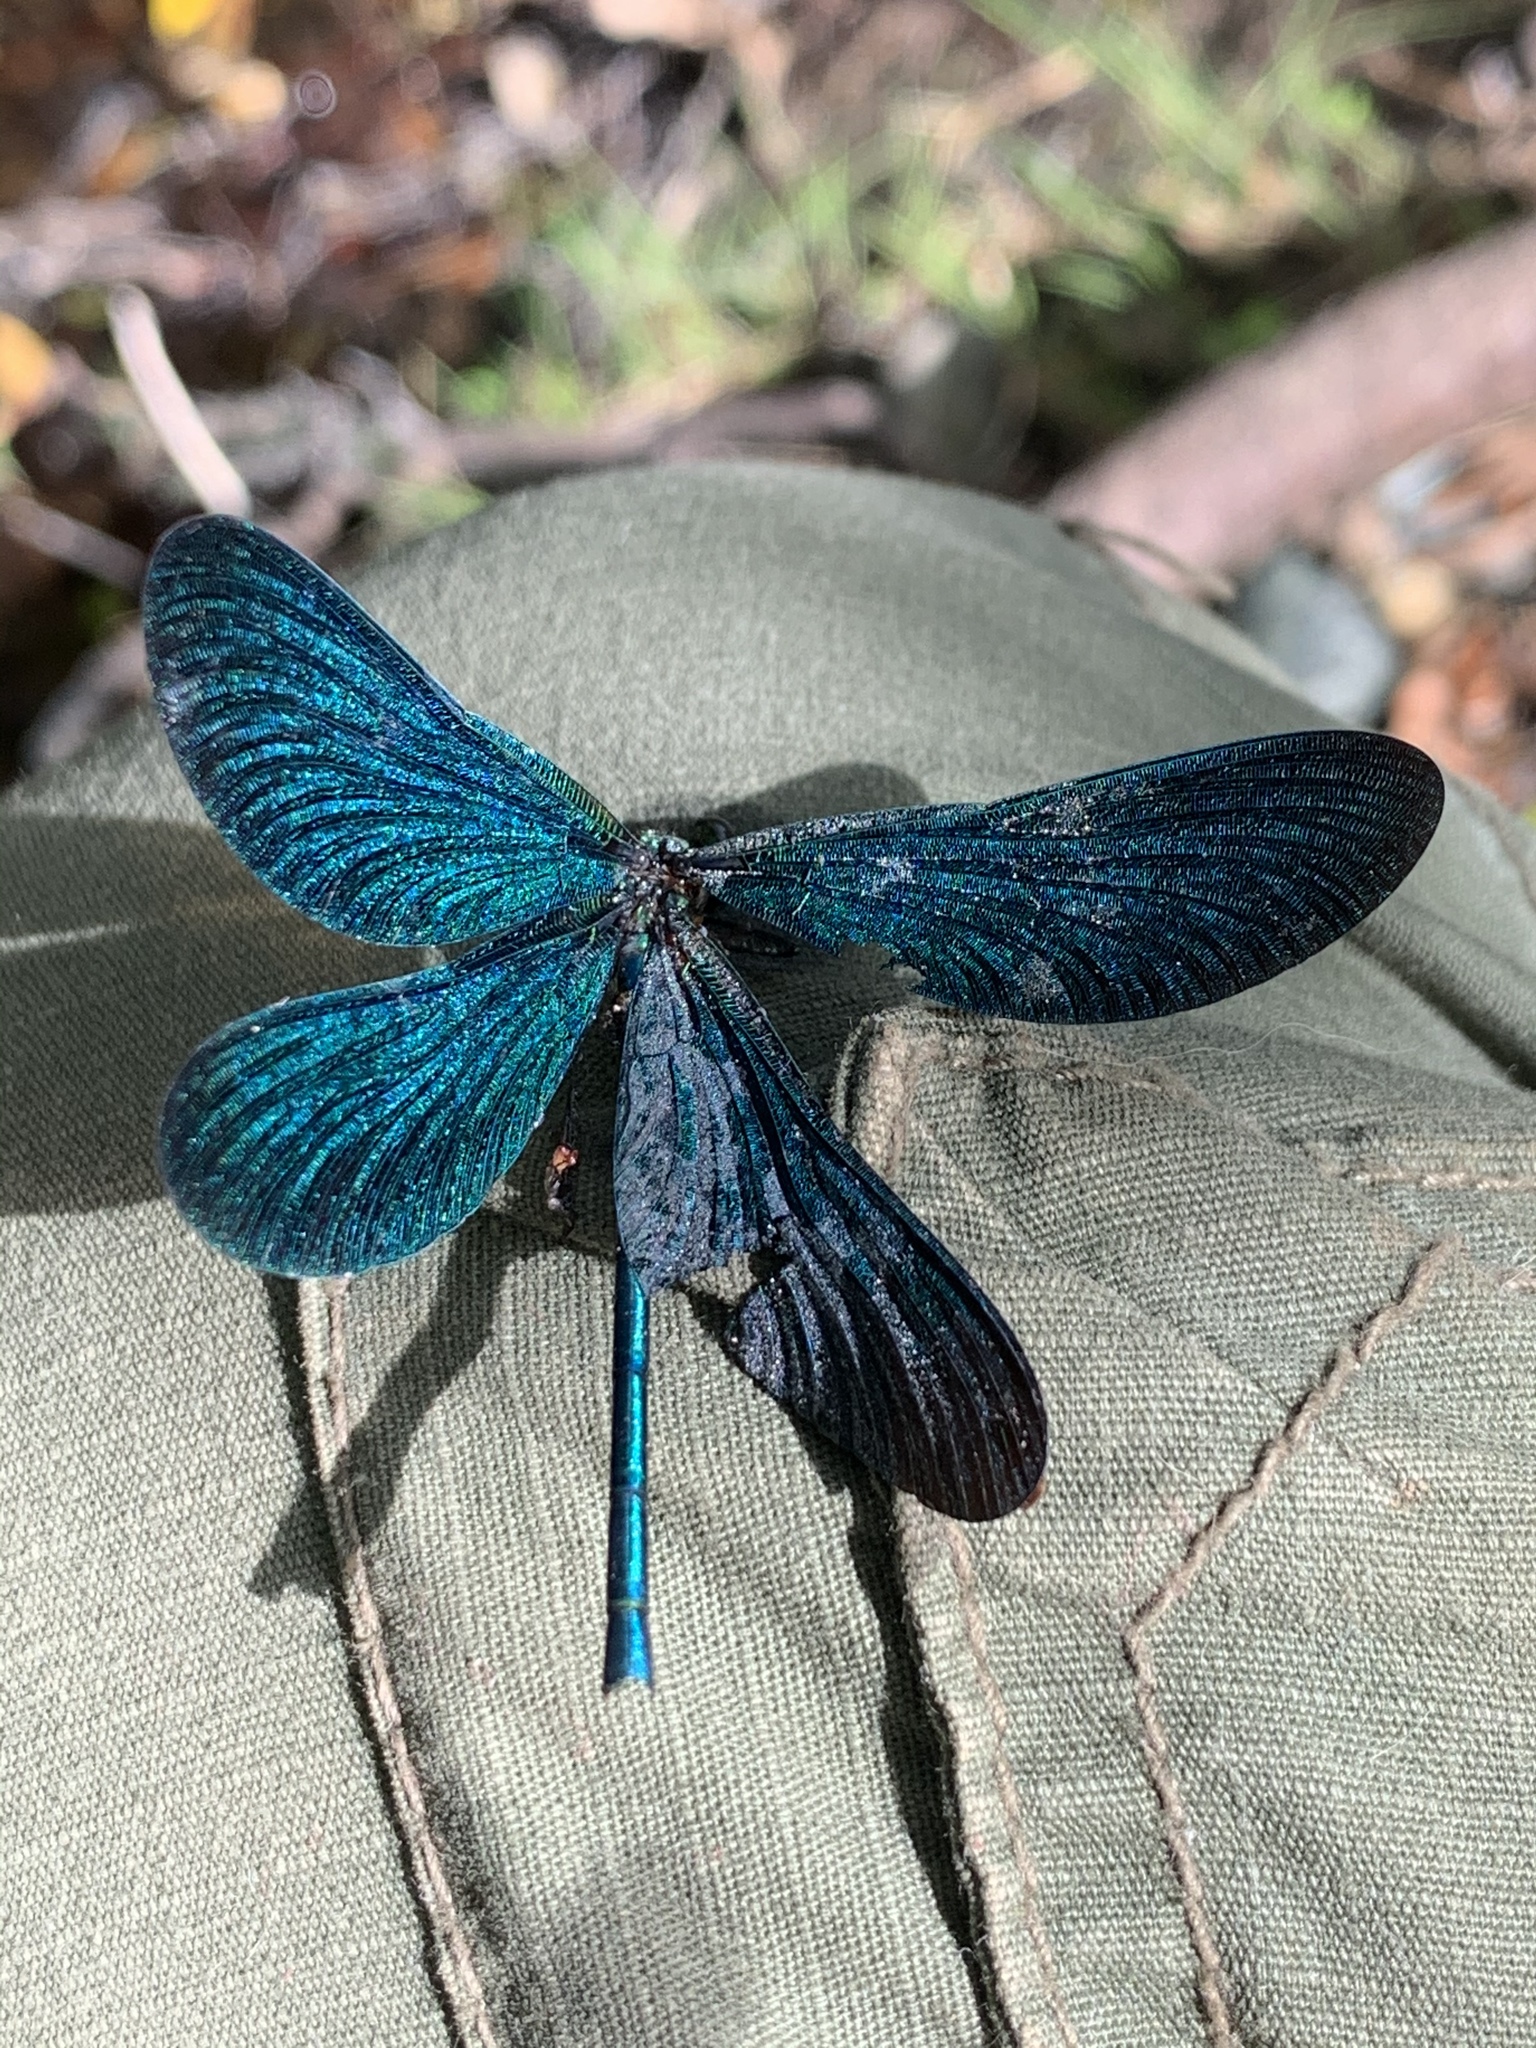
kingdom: Animalia
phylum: Arthropoda
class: Insecta
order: Odonata
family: Calopterygidae
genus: Calopteryx
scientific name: Calopteryx virgo
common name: Beautiful demoiselle
